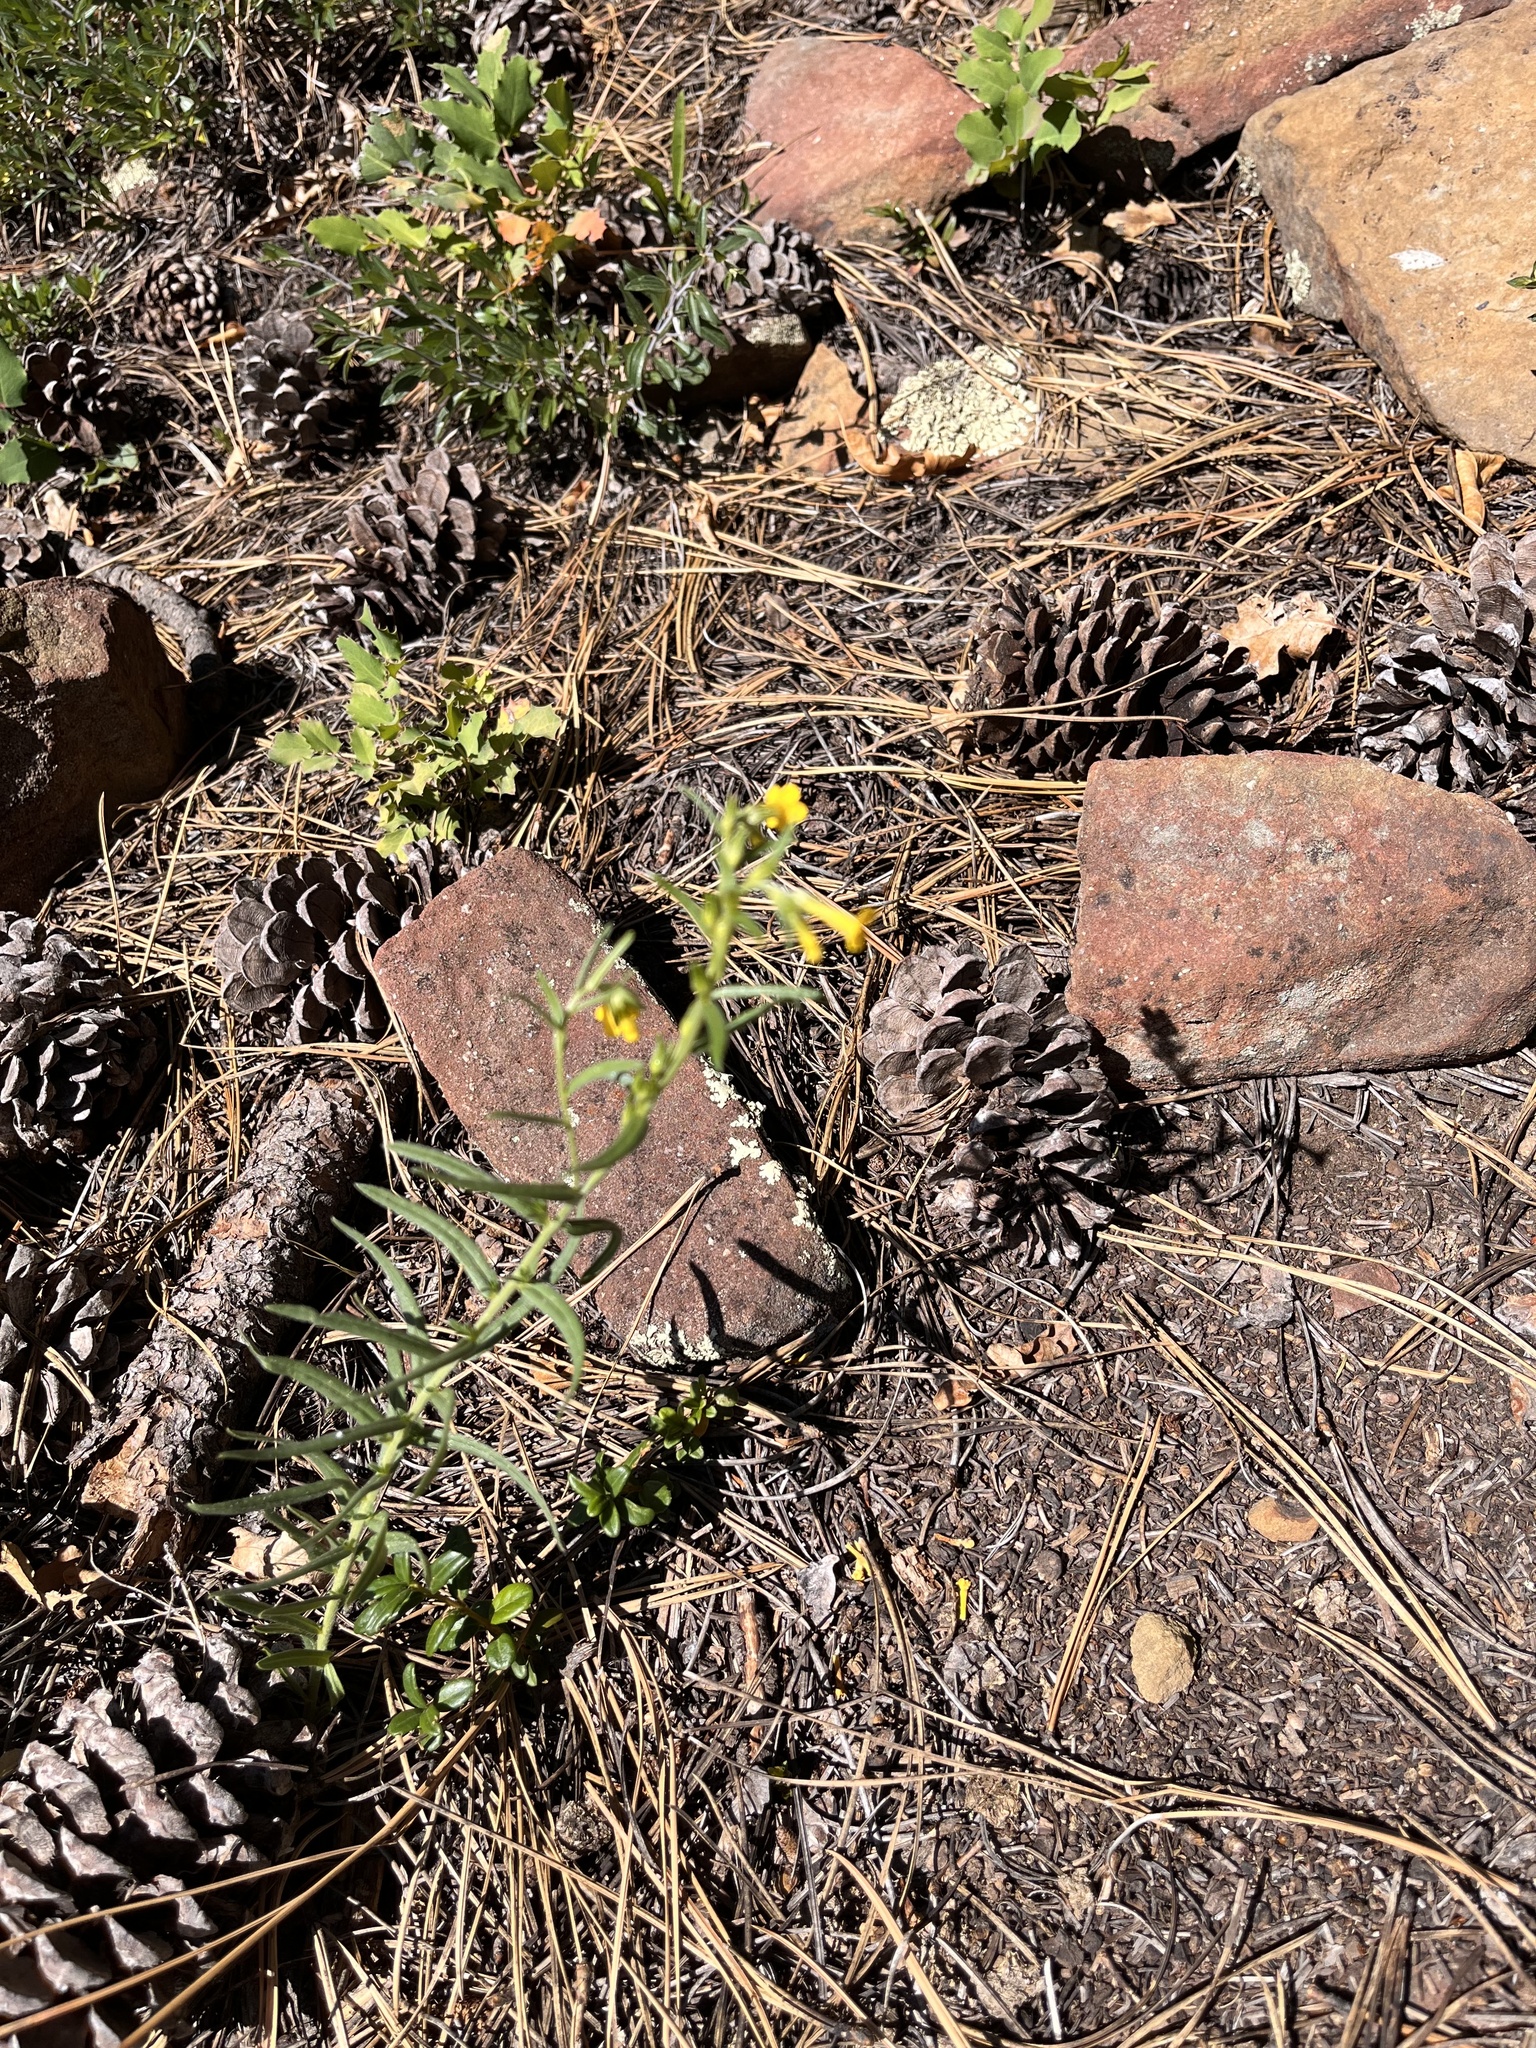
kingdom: Plantae
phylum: Tracheophyta
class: Magnoliopsida
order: Boraginales
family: Boraginaceae
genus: Lithospermum
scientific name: Lithospermum multiflorum
